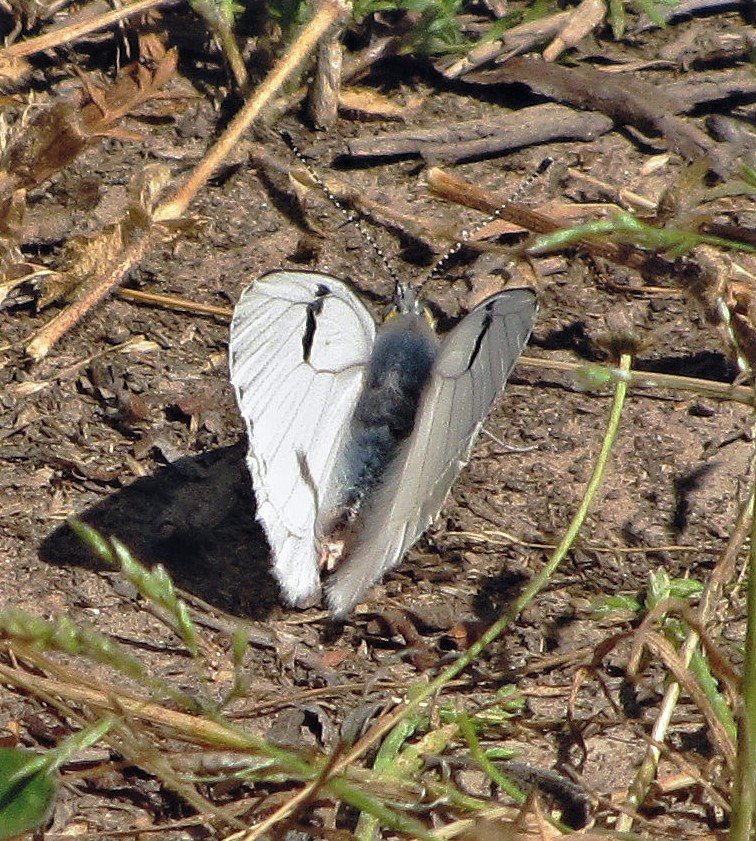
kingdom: Animalia
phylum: Arthropoda
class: Insecta
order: Lepidoptera
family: Pieridae
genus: Tatochila
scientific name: Tatochila mercedis
